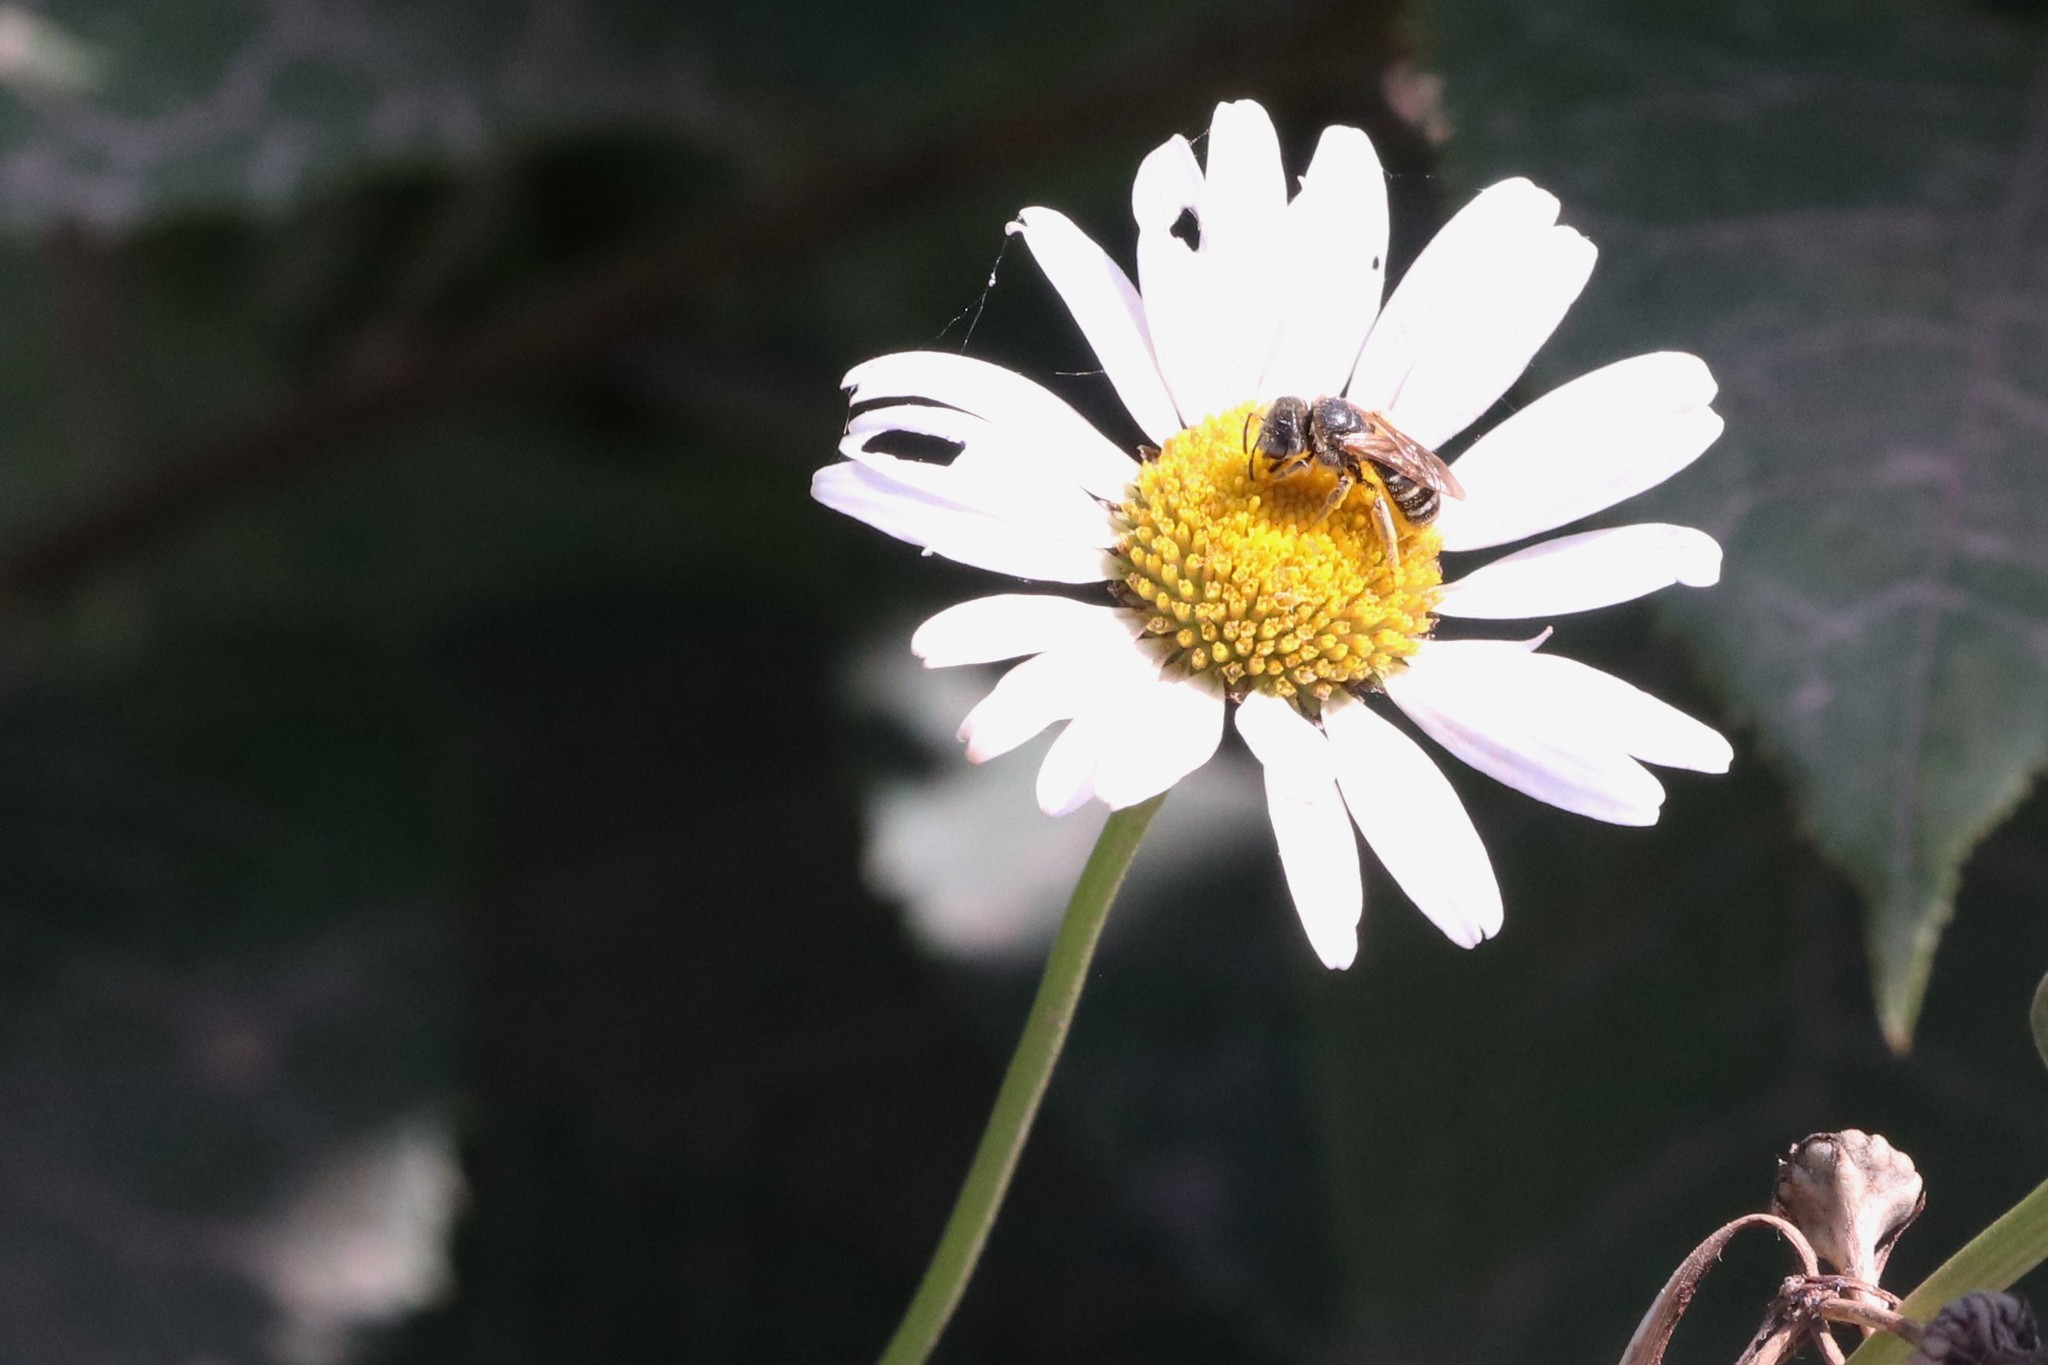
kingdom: Plantae
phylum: Tracheophyta
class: Magnoliopsida
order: Asterales
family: Asteraceae
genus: Leucanthemum
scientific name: Leucanthemum vulgare
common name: Oxeye daisy
